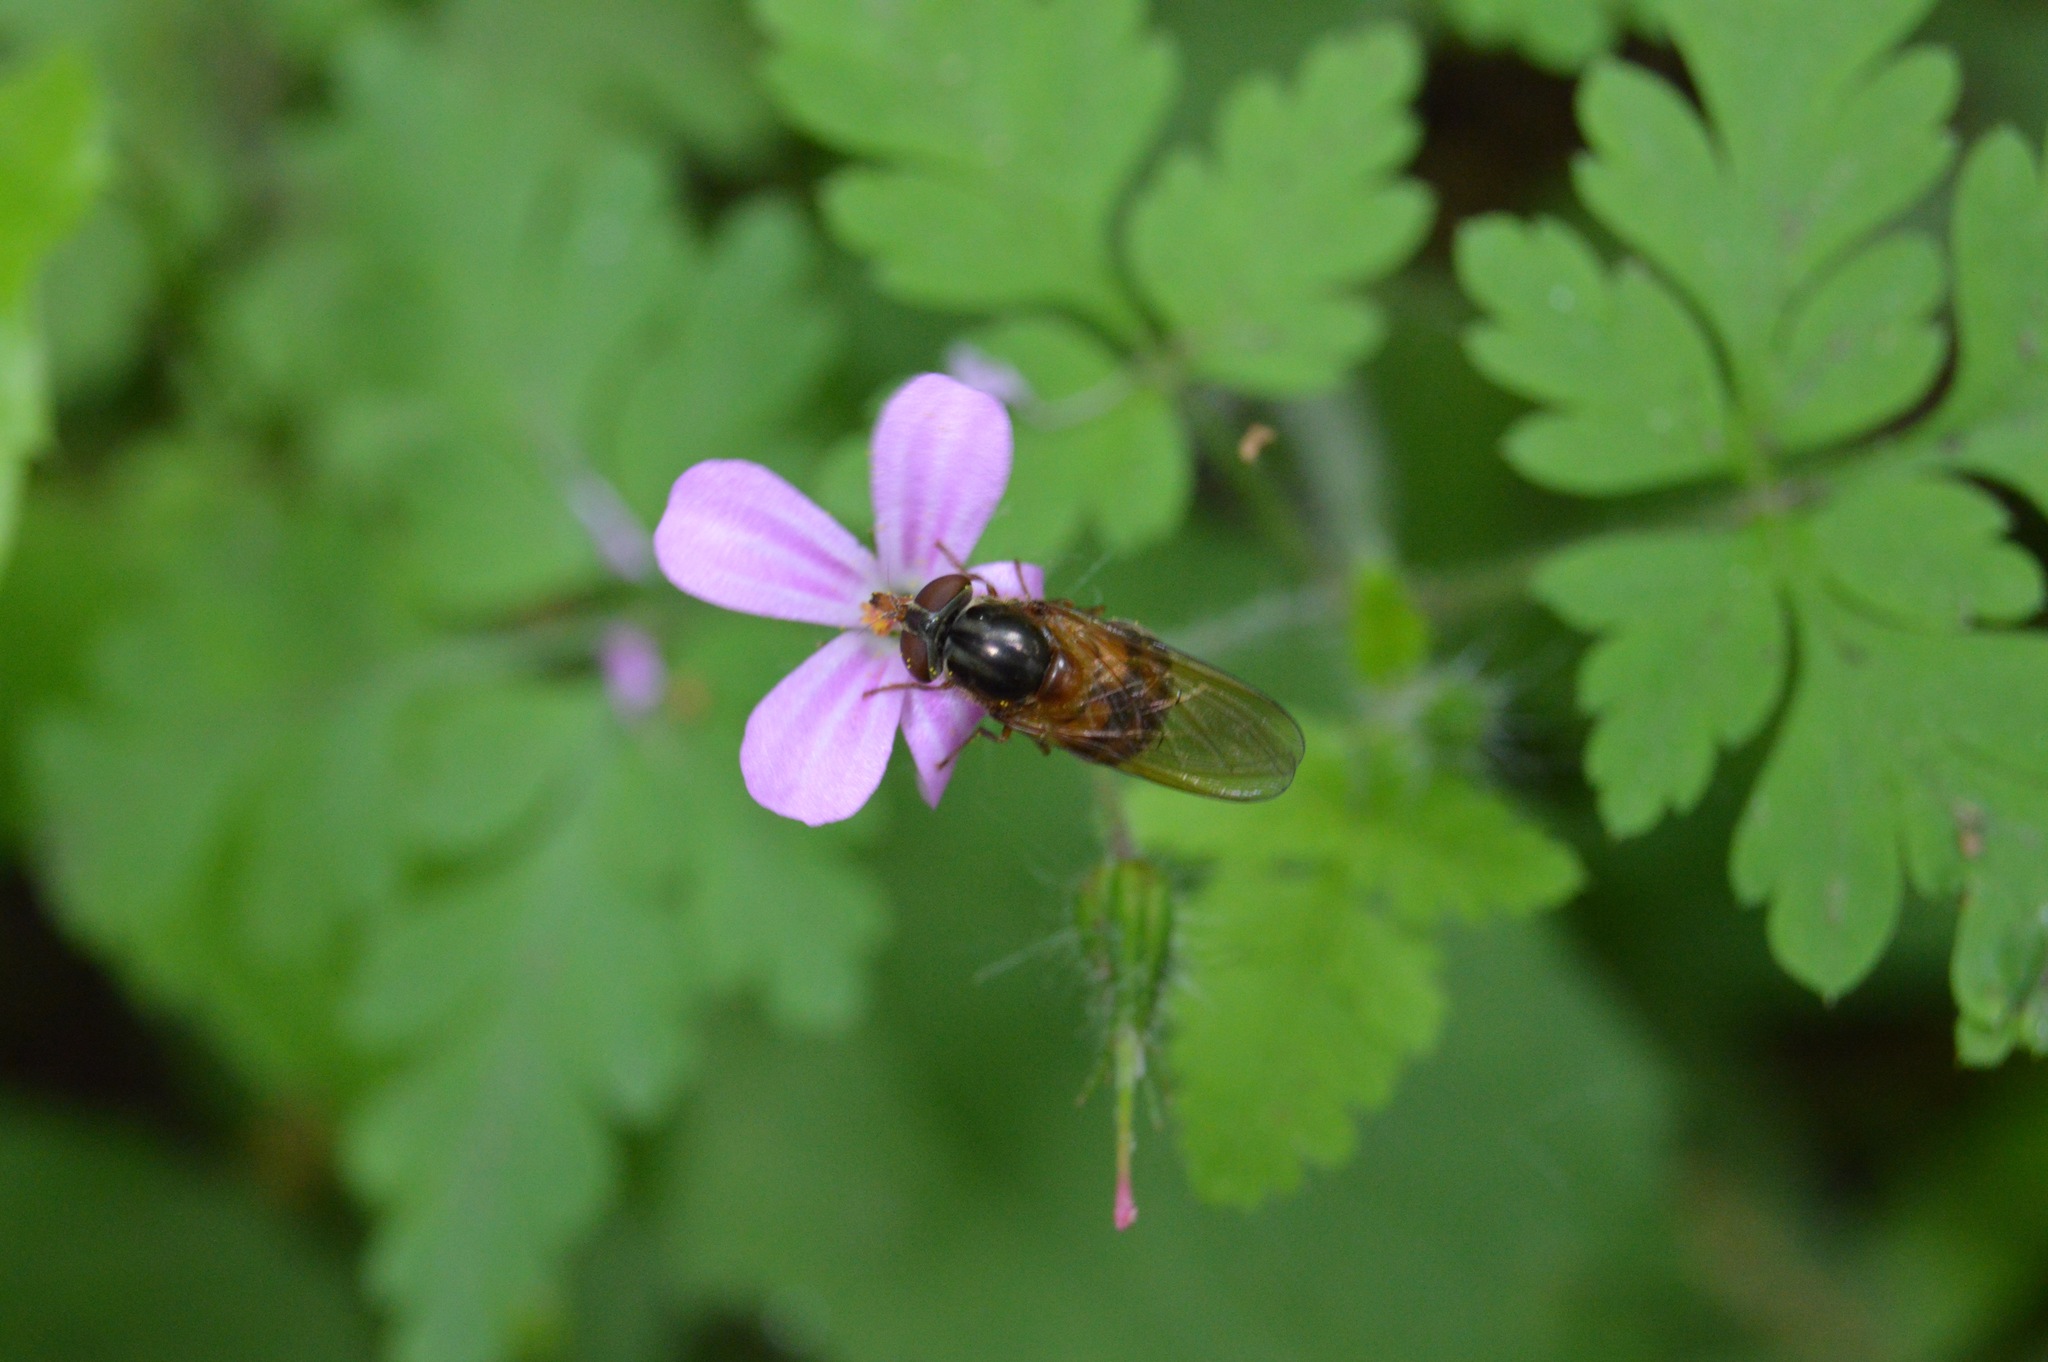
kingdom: Animalia
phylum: Arthropoda
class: Insecta
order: Diptera
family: Syrphidae
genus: Rhingia
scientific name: Rhingia nasica
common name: American snout fly
